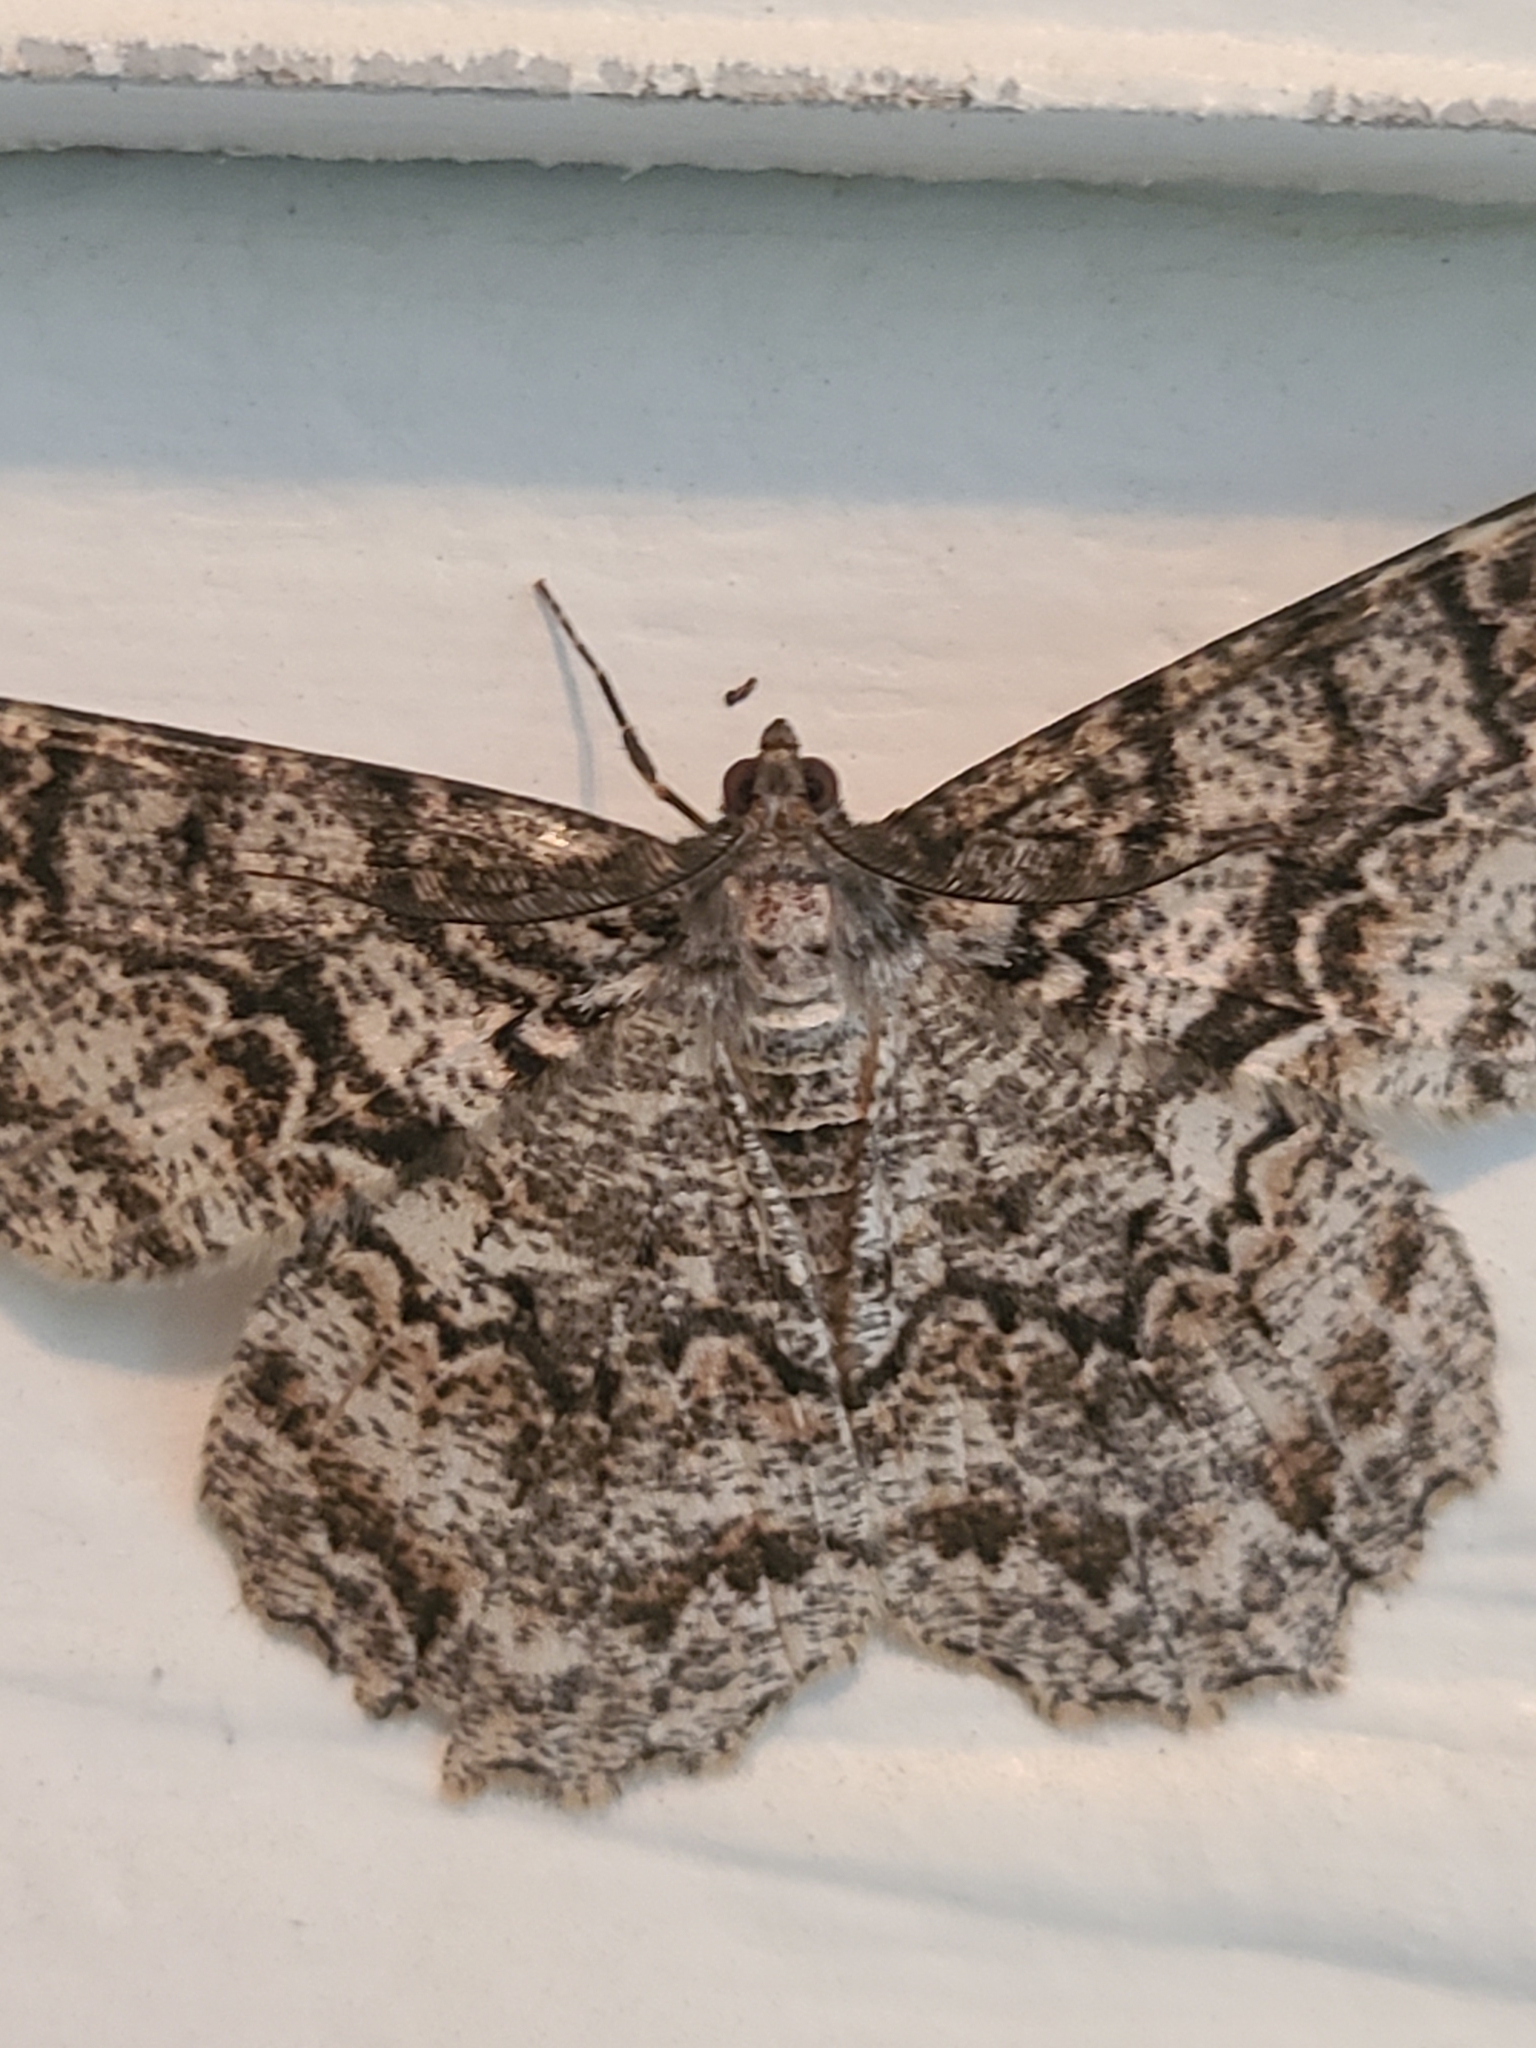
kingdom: Animalia
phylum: Arthropoda
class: Insecta
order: Lepidoptera
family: Geometridae
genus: Epimecis
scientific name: Epimecis hortaria
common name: Tulip-tree beauty
